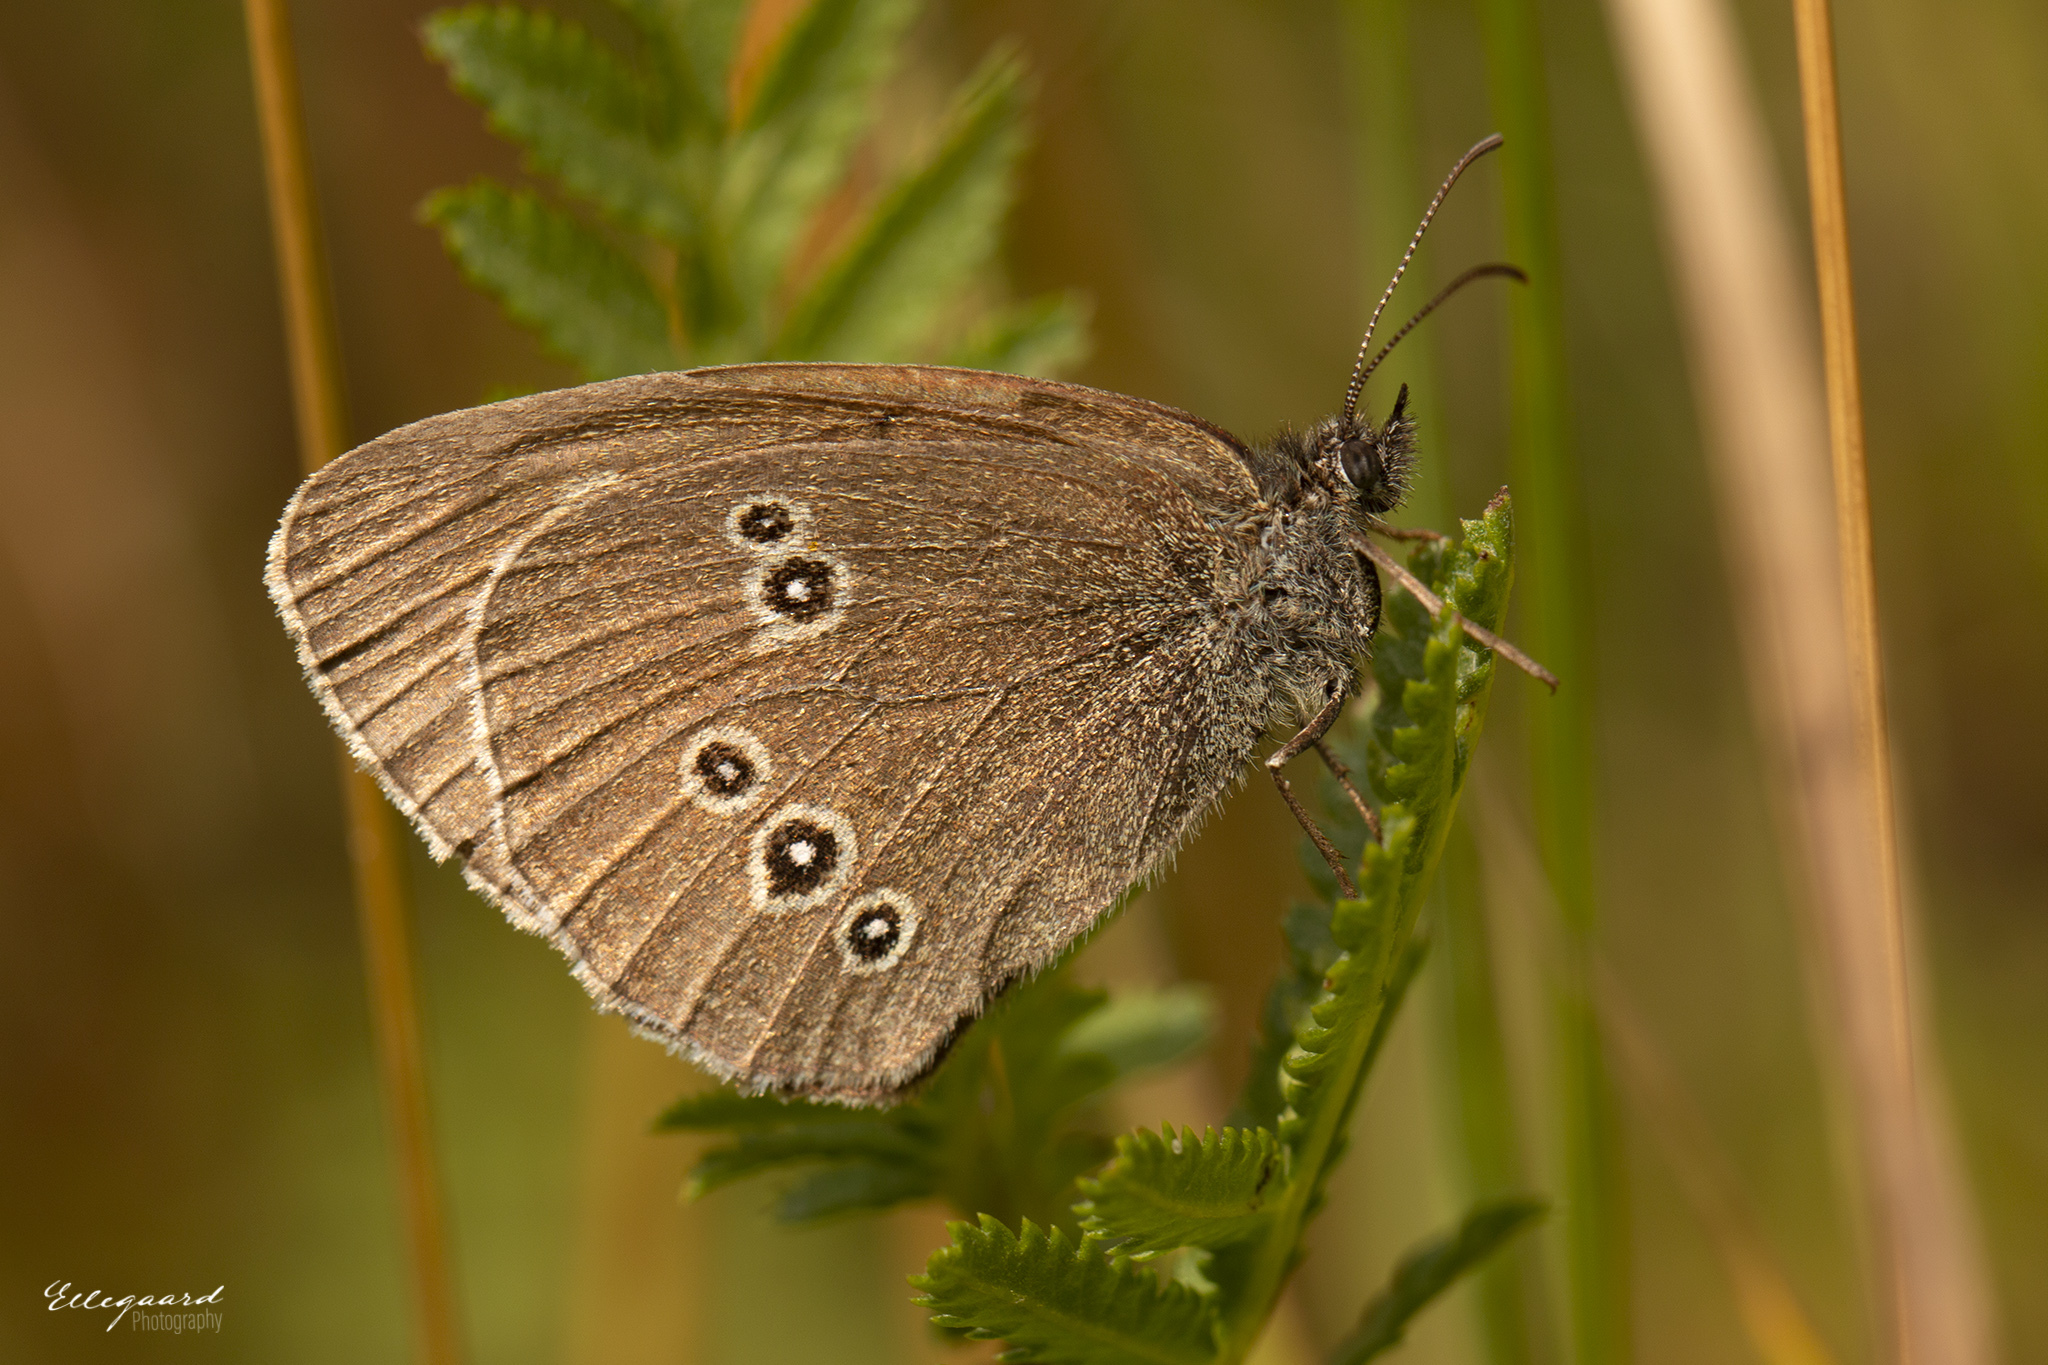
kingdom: Animalia
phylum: Arthropoda
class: Insecta
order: Lepidoptera
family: Nymphalidae
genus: Aphantopus
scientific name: Aphantopus hyperantus
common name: Ringlet
